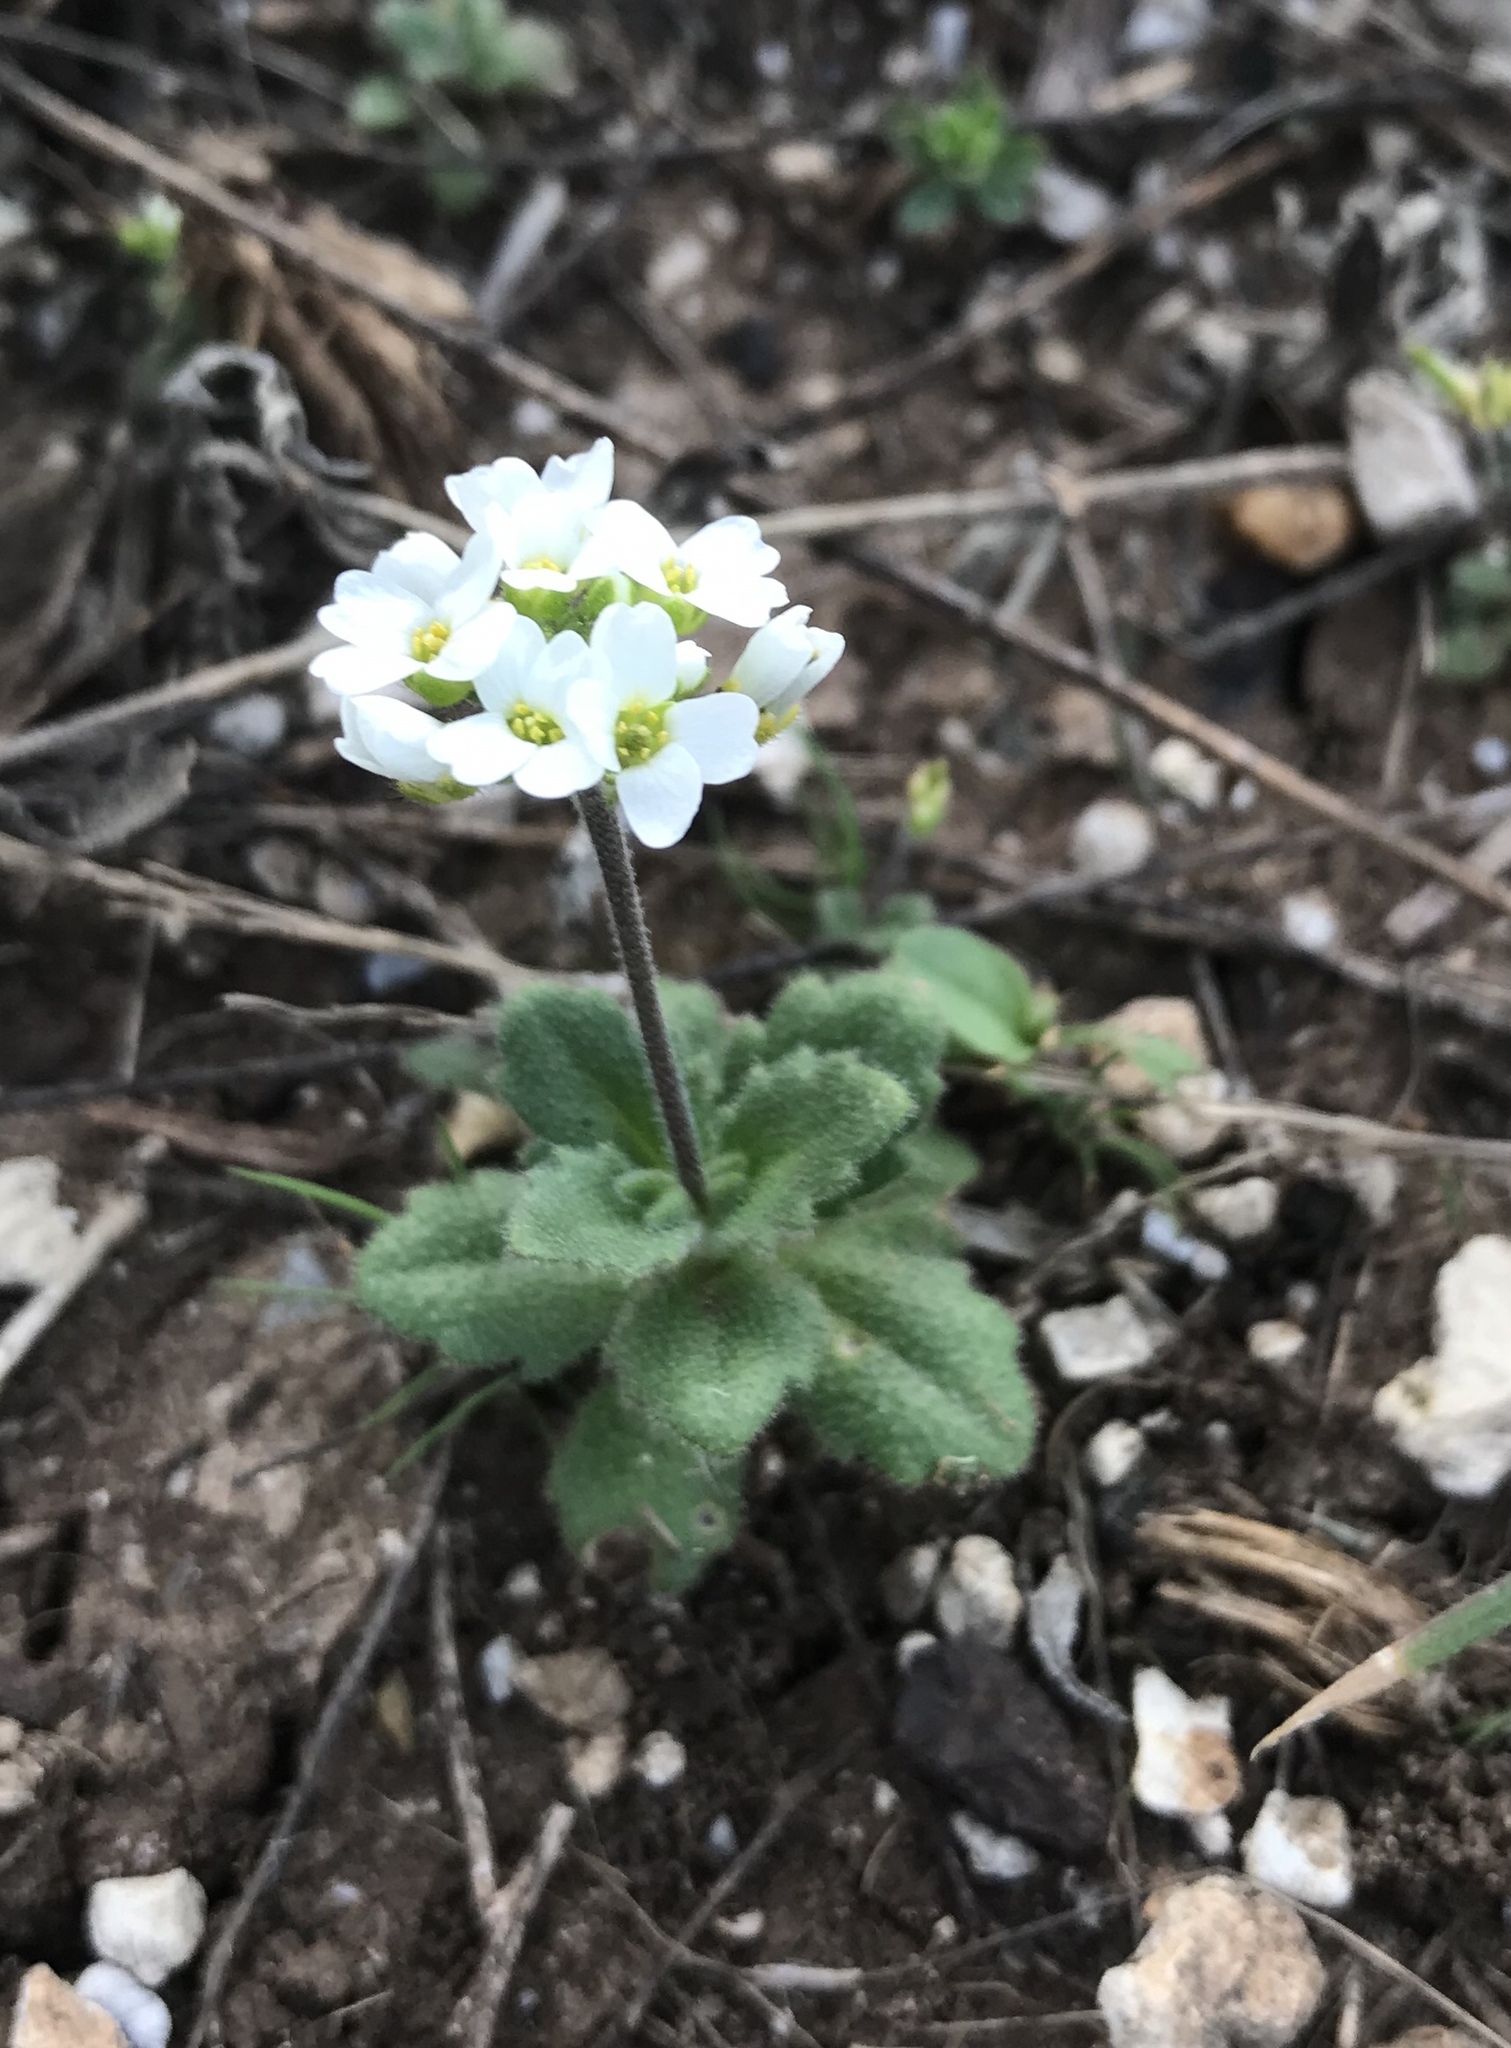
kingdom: Plantae
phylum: Tracheophyta
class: Magnoliopsida
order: Brassicales
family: Brassicaceae
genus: Tomostima
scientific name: Tomostima cuneifolia
